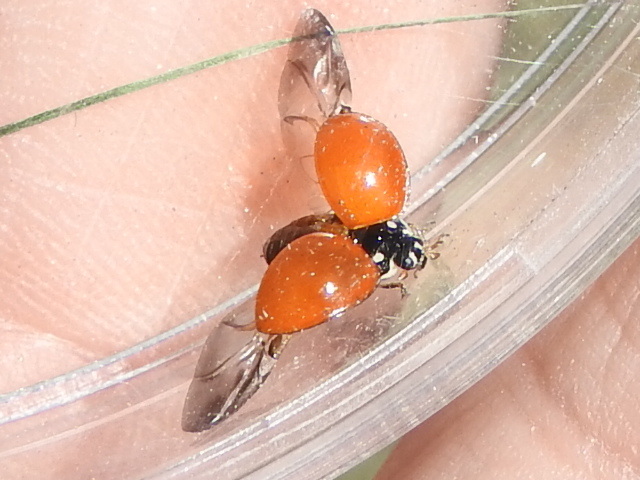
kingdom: Animalia
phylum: Arthropoda
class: Insecta
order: Coleoptera
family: Coccinellidae
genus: Cycloneda
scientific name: Cycloneda sanguinea
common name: Ladybird beetle
